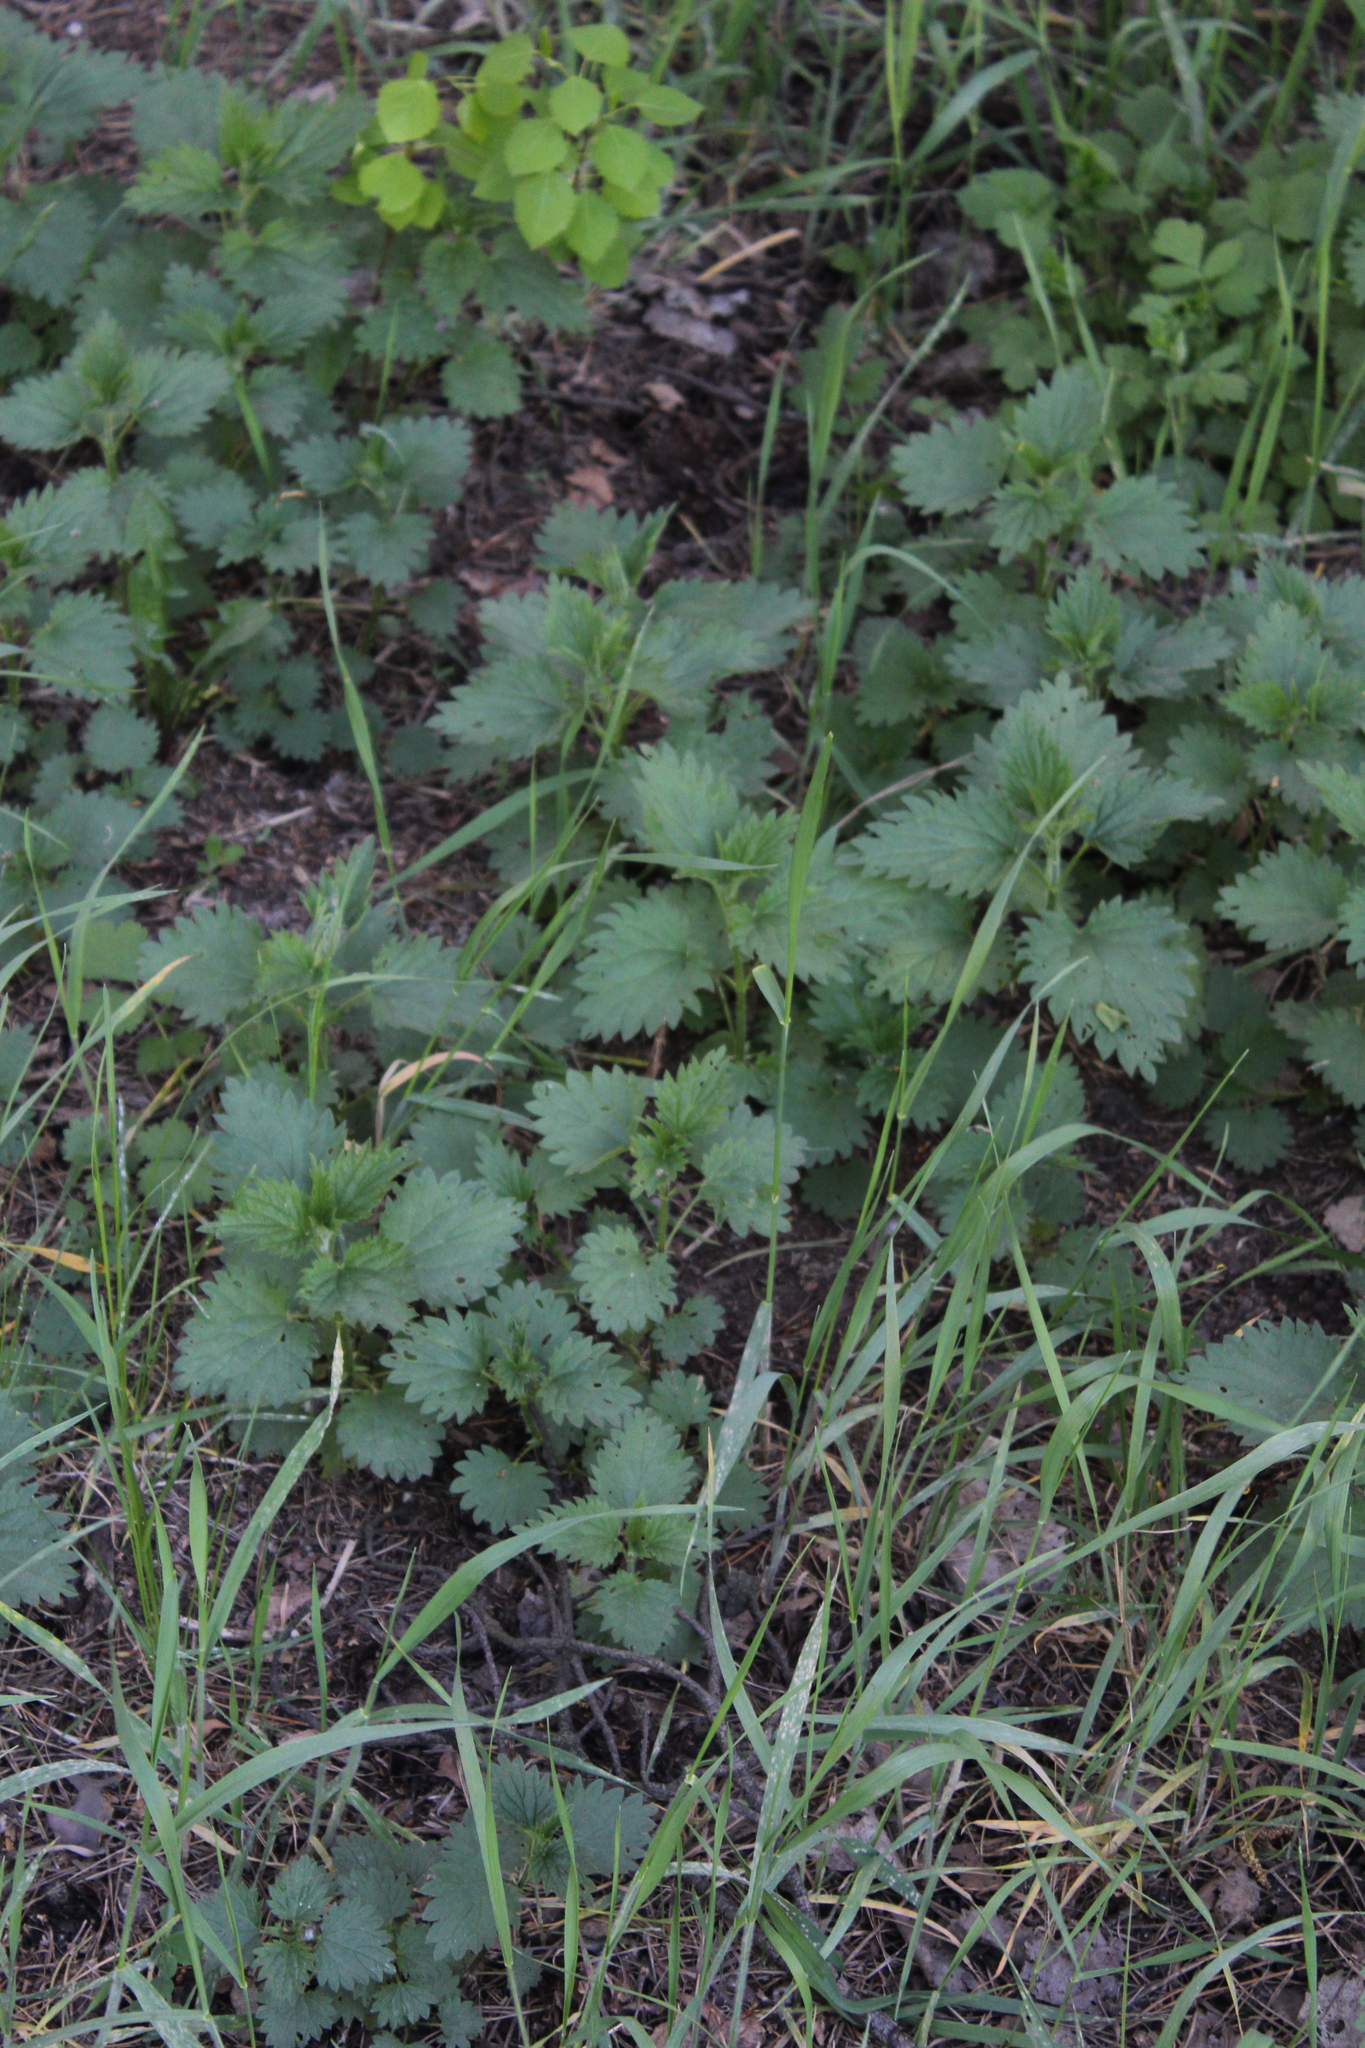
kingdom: Plantae
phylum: Tracheophyta
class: Magnoliopsida
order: Rosales
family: Urticaceae
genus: Urtica
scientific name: Urtica dioica
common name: Common nettle
